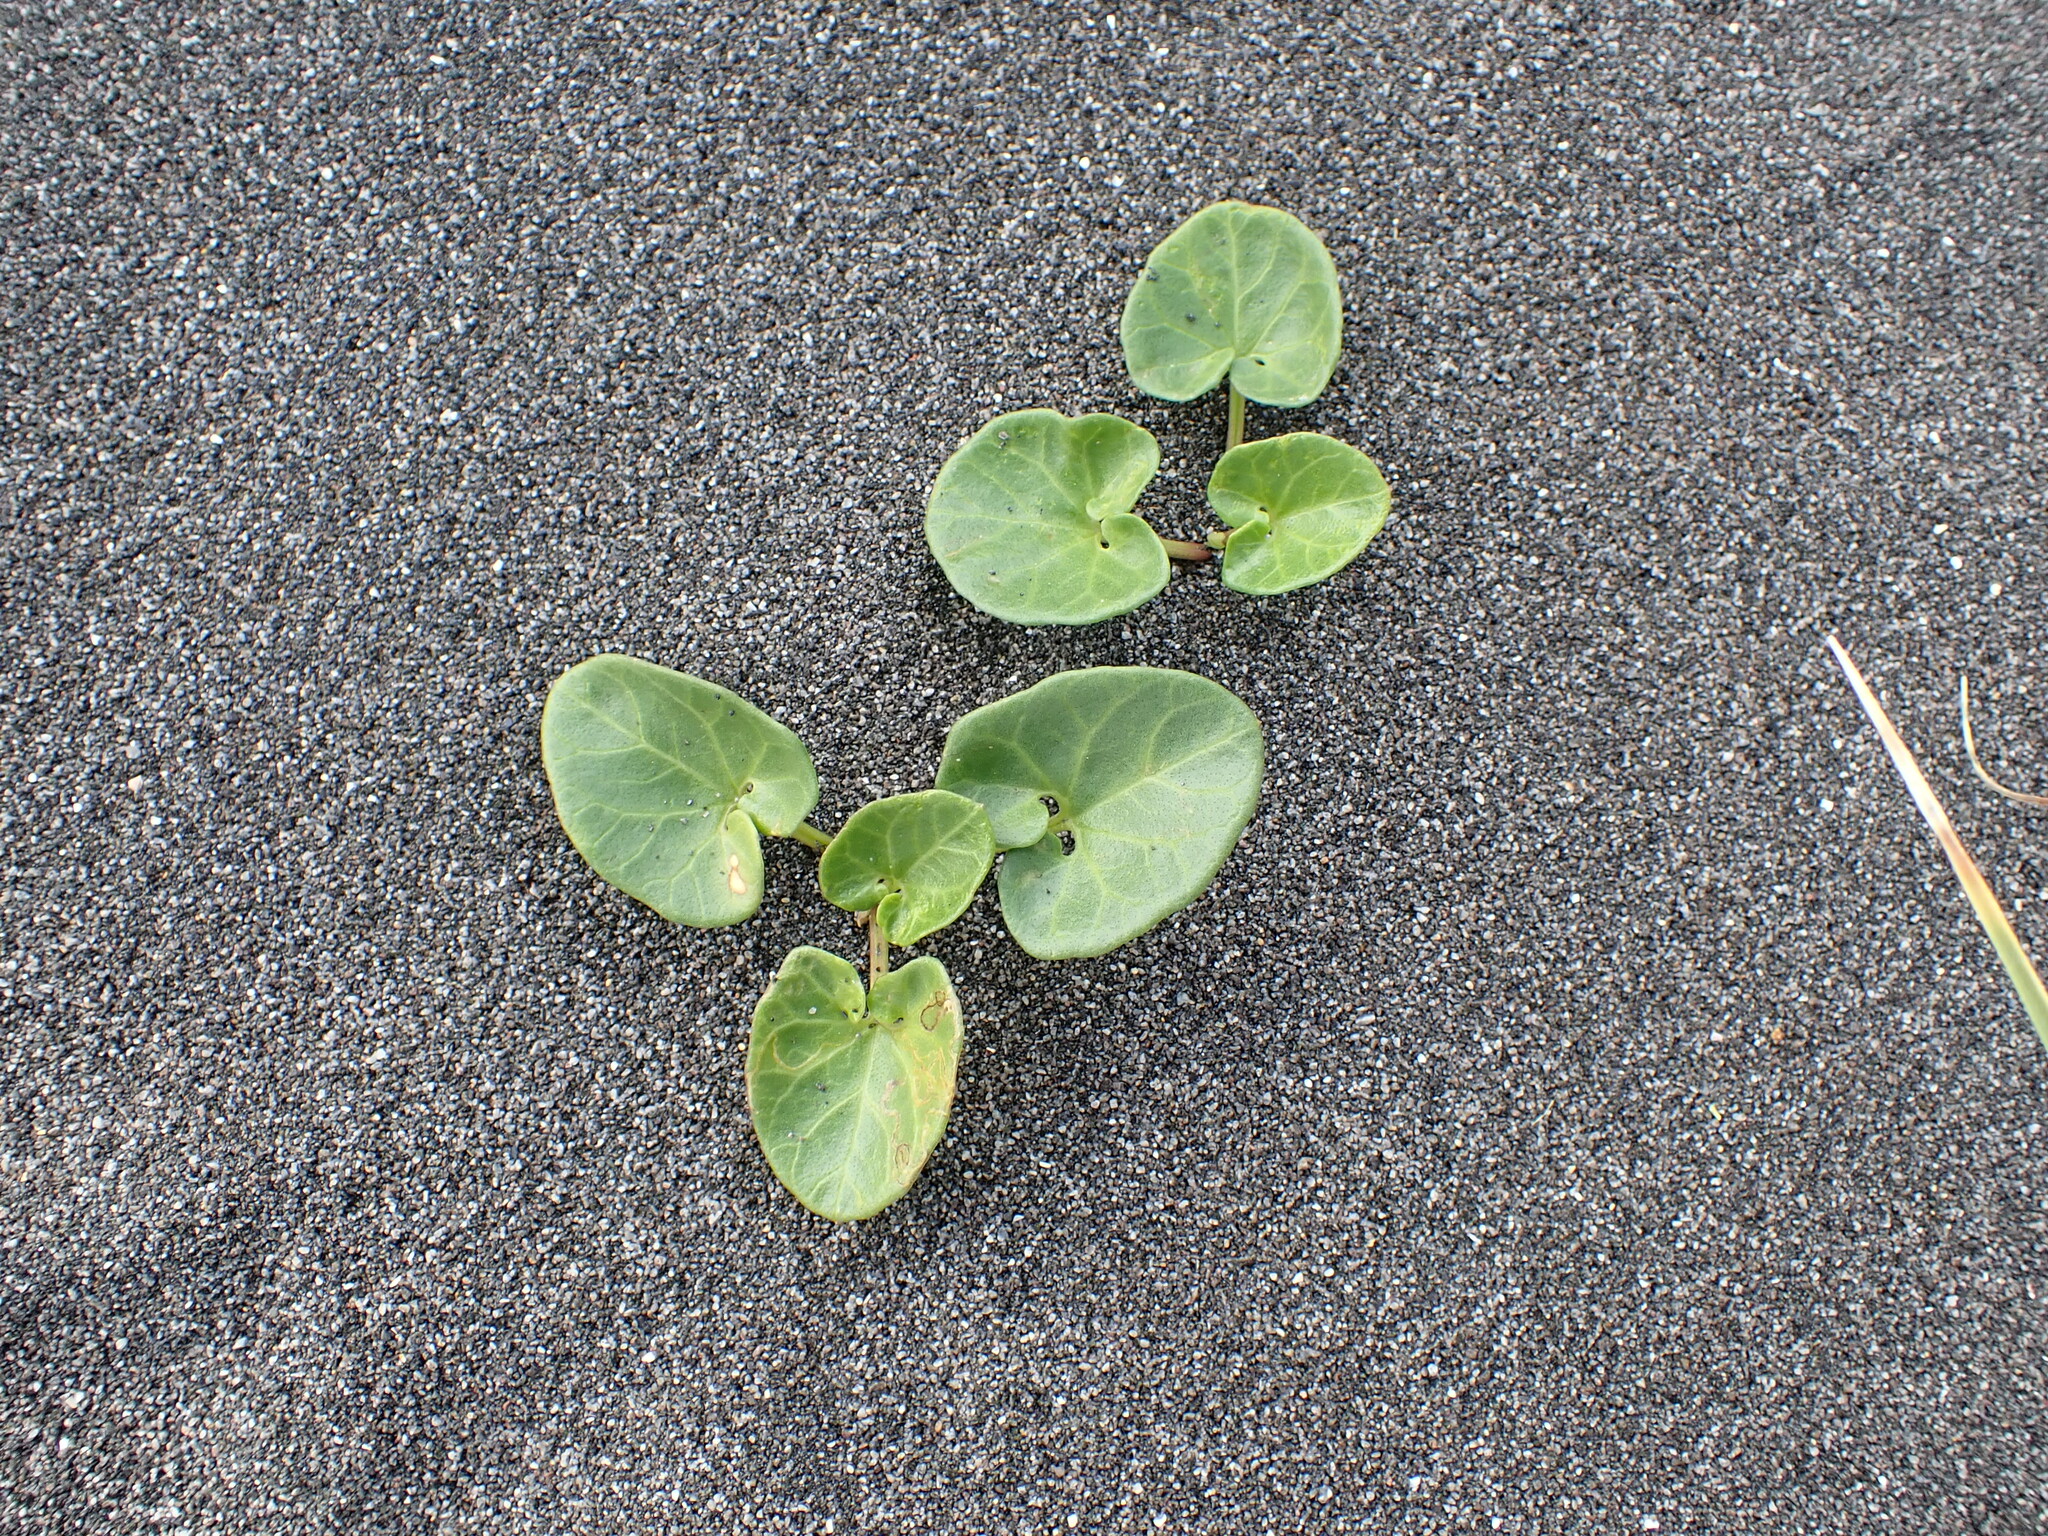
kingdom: Plantae
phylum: Tracheophyta
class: Magnoliopsida
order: Solanales
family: Convolvulaceae
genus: Calystegia
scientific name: Calystegia soldanella
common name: Sea bindweed
